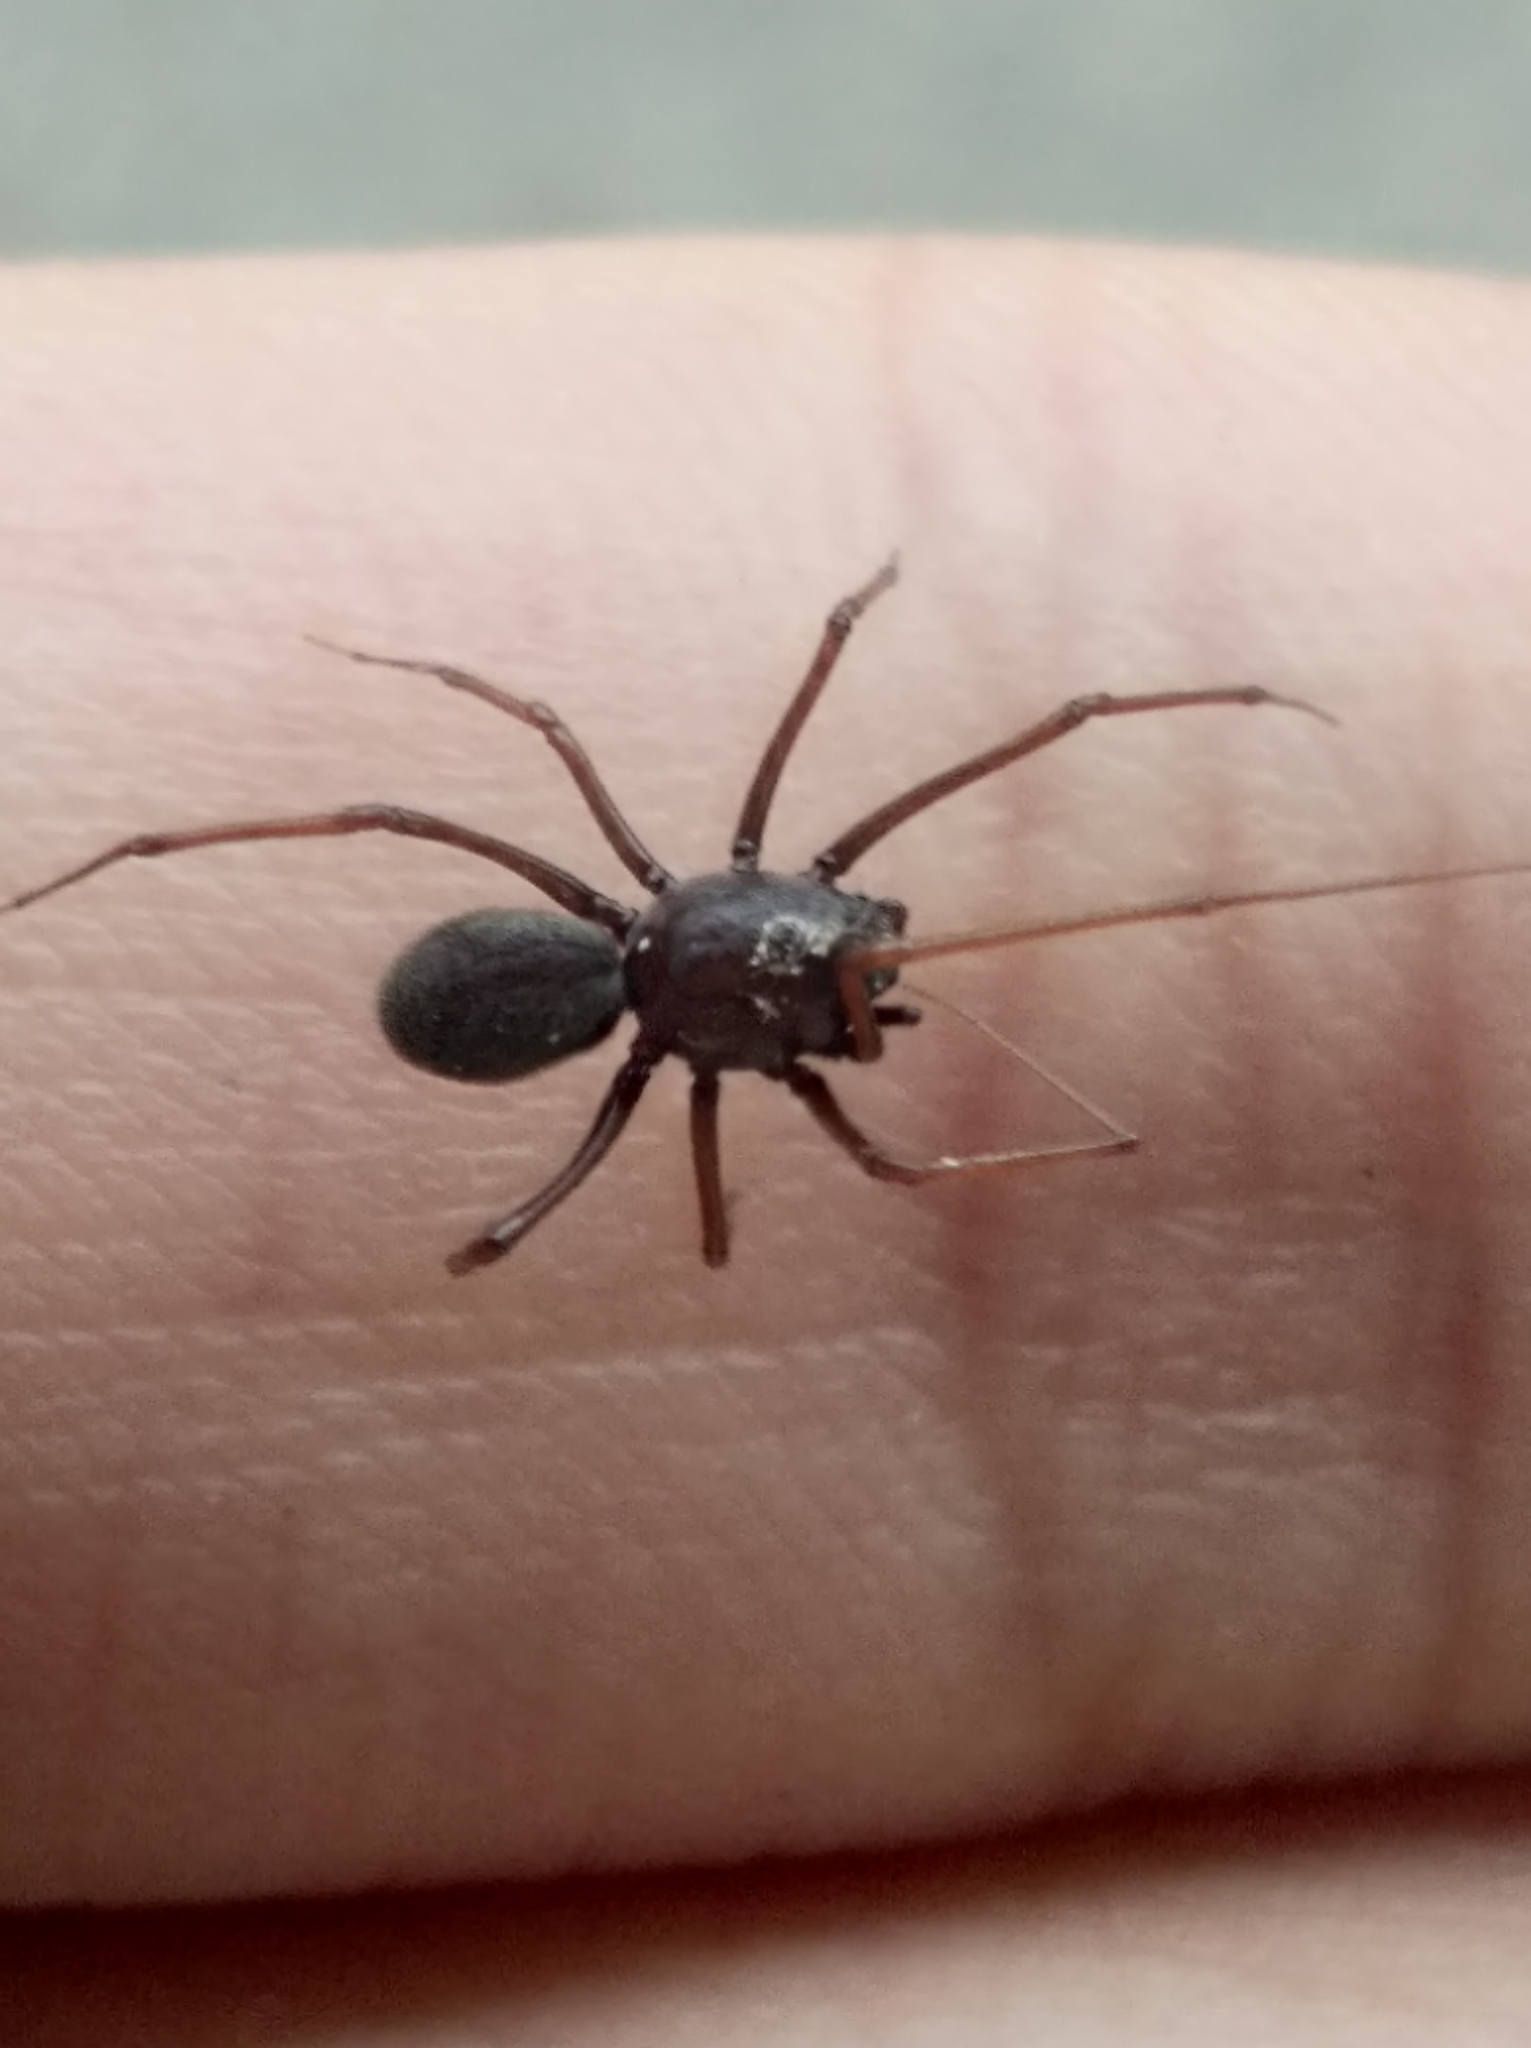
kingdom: Animalia
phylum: Arthropoda
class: Arachnida
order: Araneae
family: Scytodidae
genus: Scytodes
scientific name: Scytodes fusca
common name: Spitting spiders
